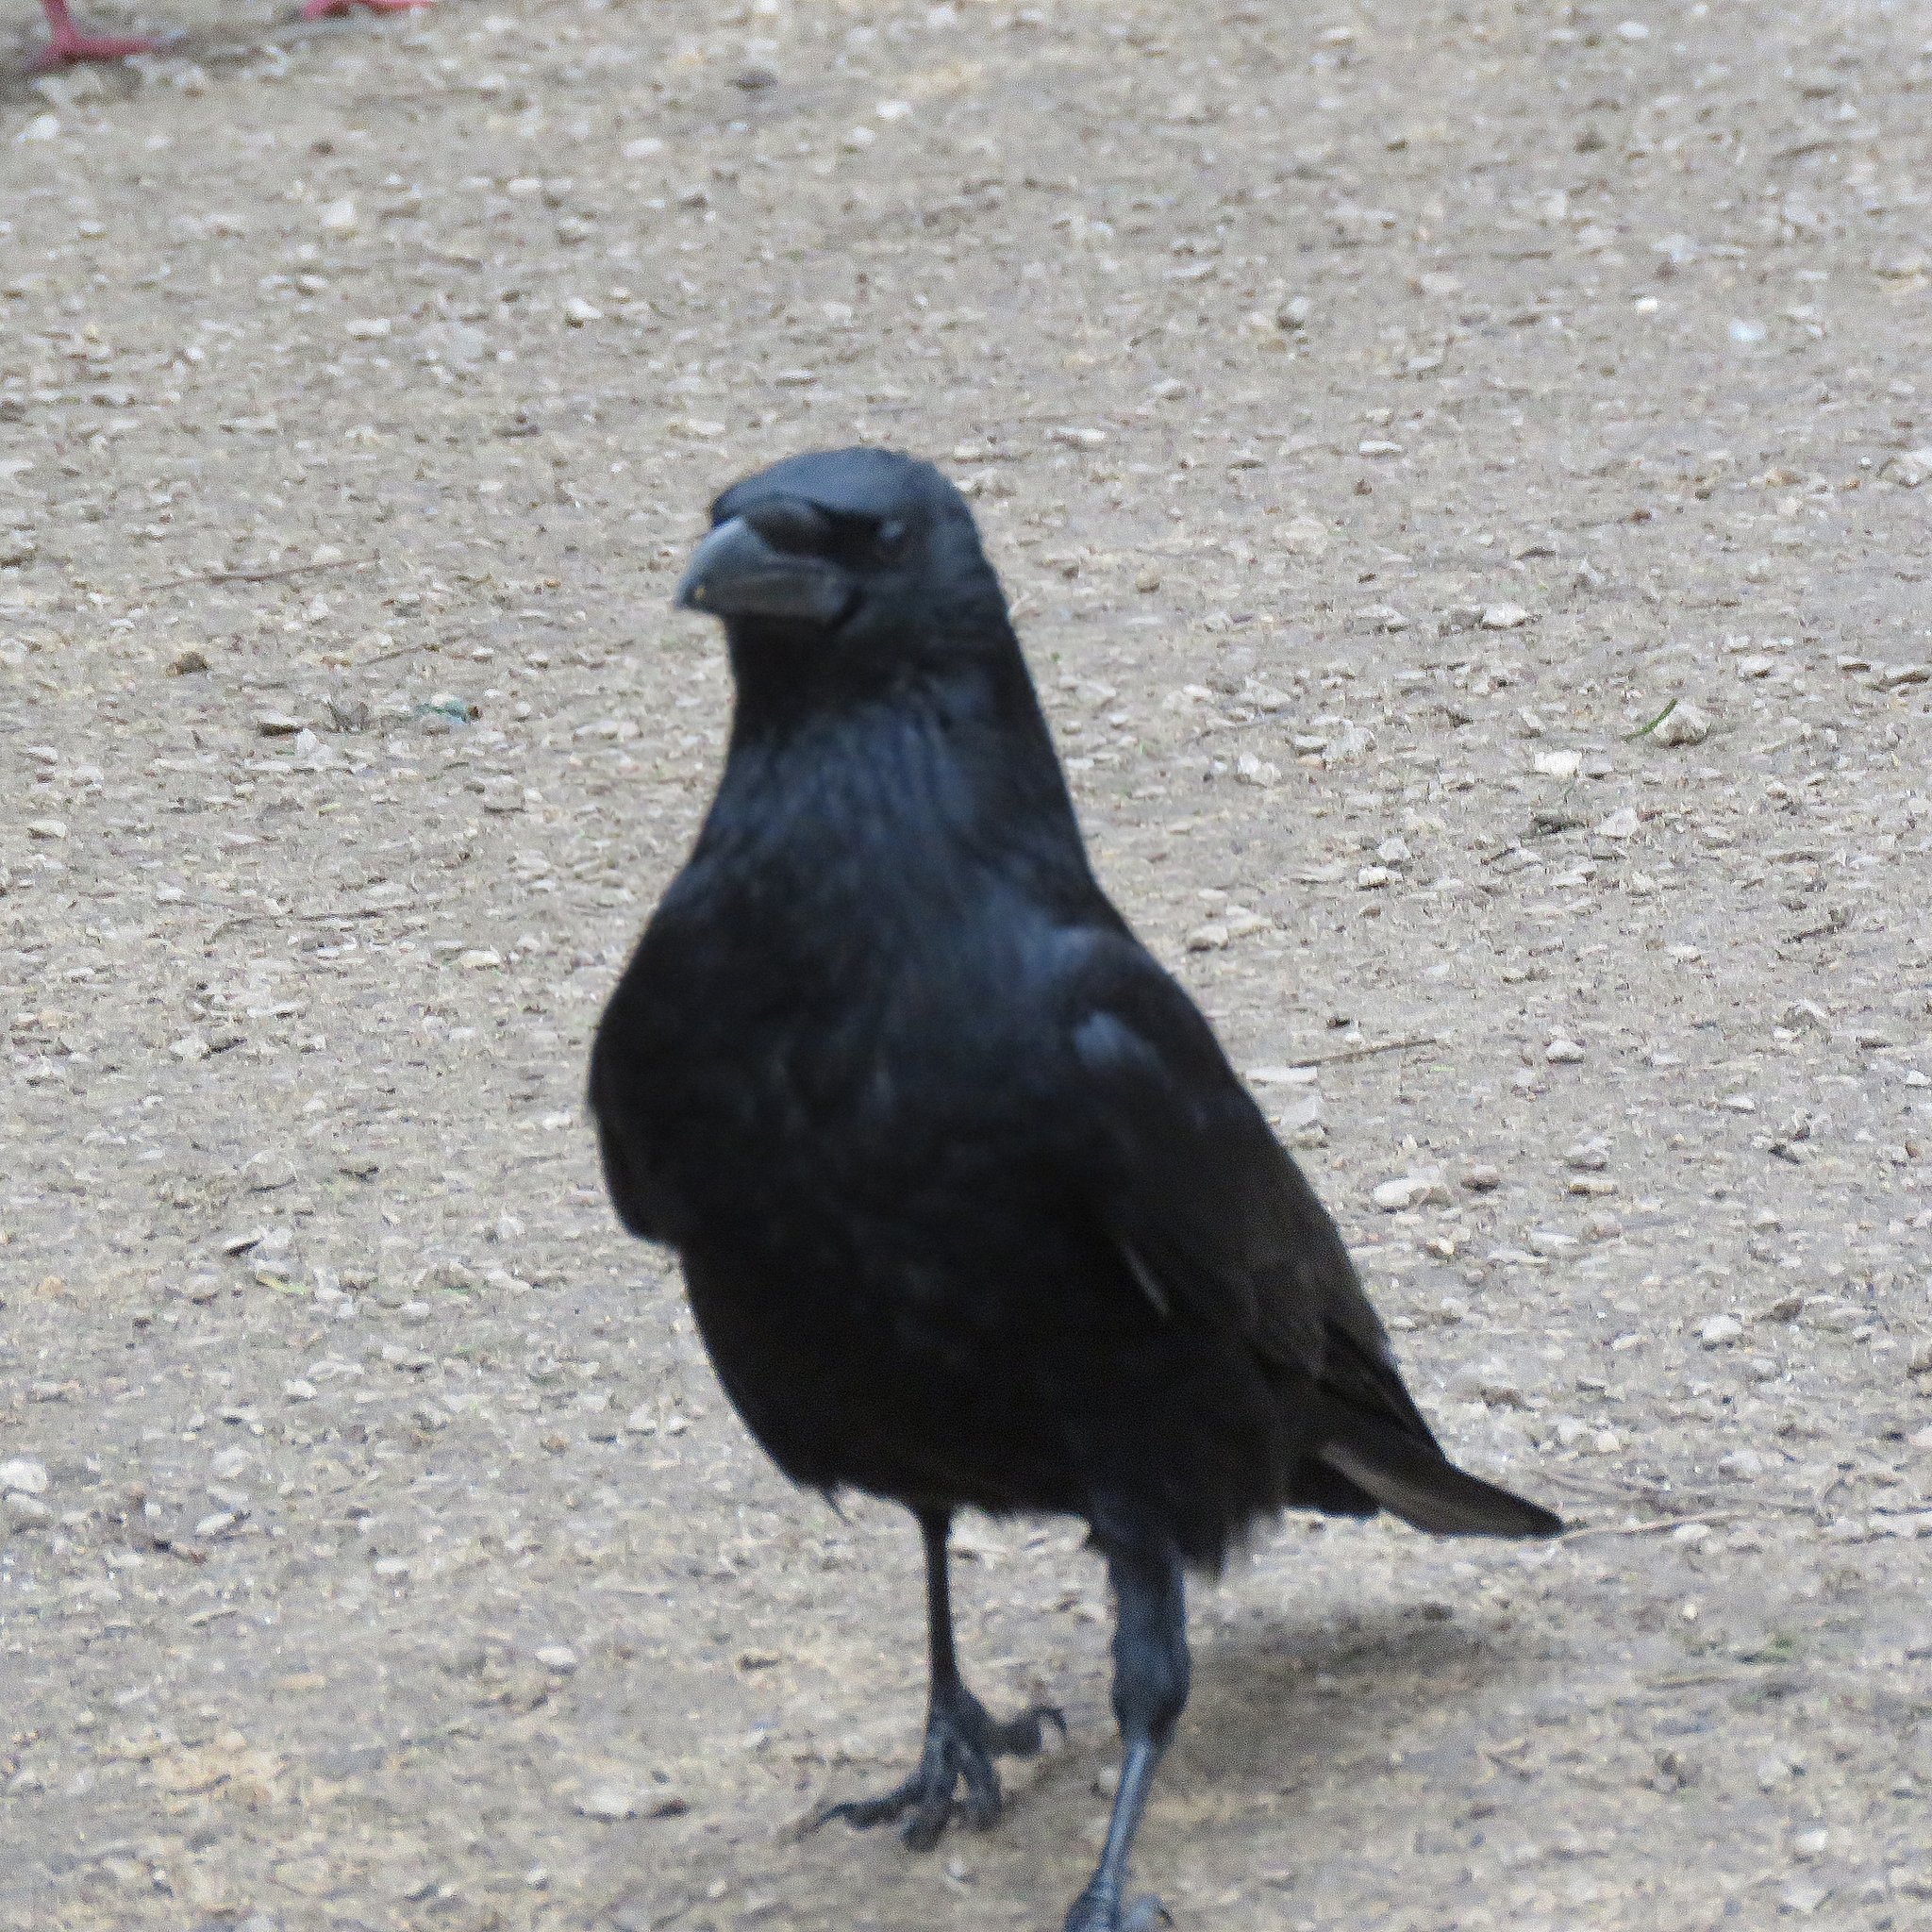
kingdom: Animalia
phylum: Chordata
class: Aves
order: Passeriformes
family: Corvidae
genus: Corvus
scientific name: Corvus corone
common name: Carrion crow
